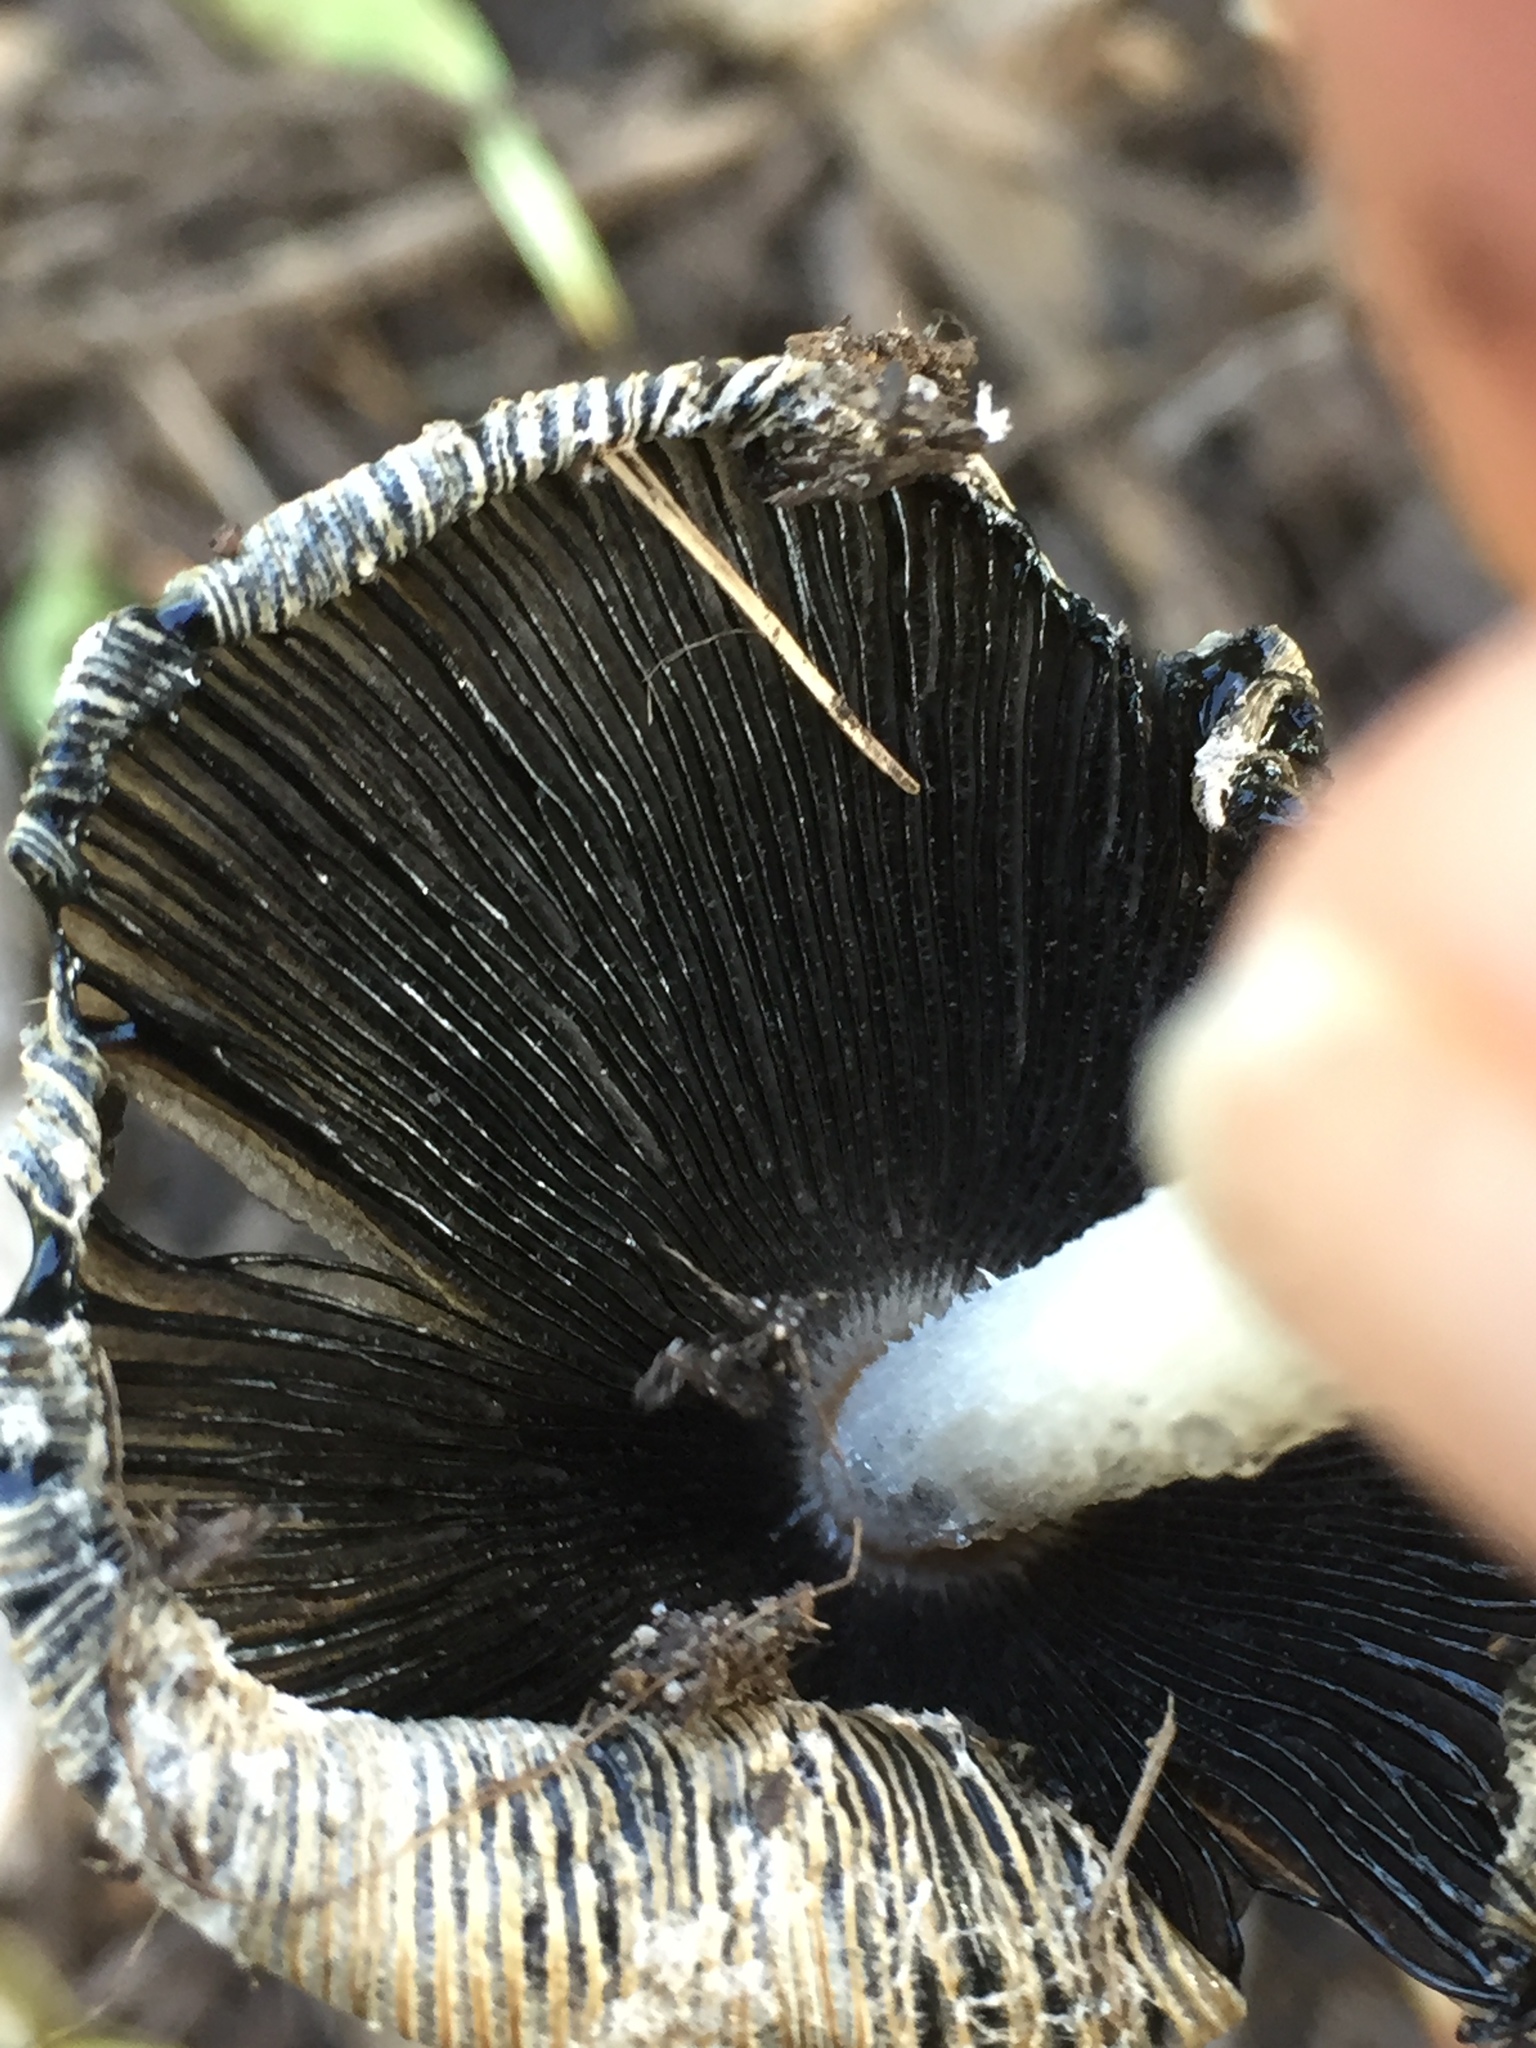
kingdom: Fungi
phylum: Basidiomycota
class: Agaricomycetes
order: Agaricales
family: Psathyrellaceae
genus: Coprinellus
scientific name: Coprinellus flocculosus
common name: Flocculose inkcap
